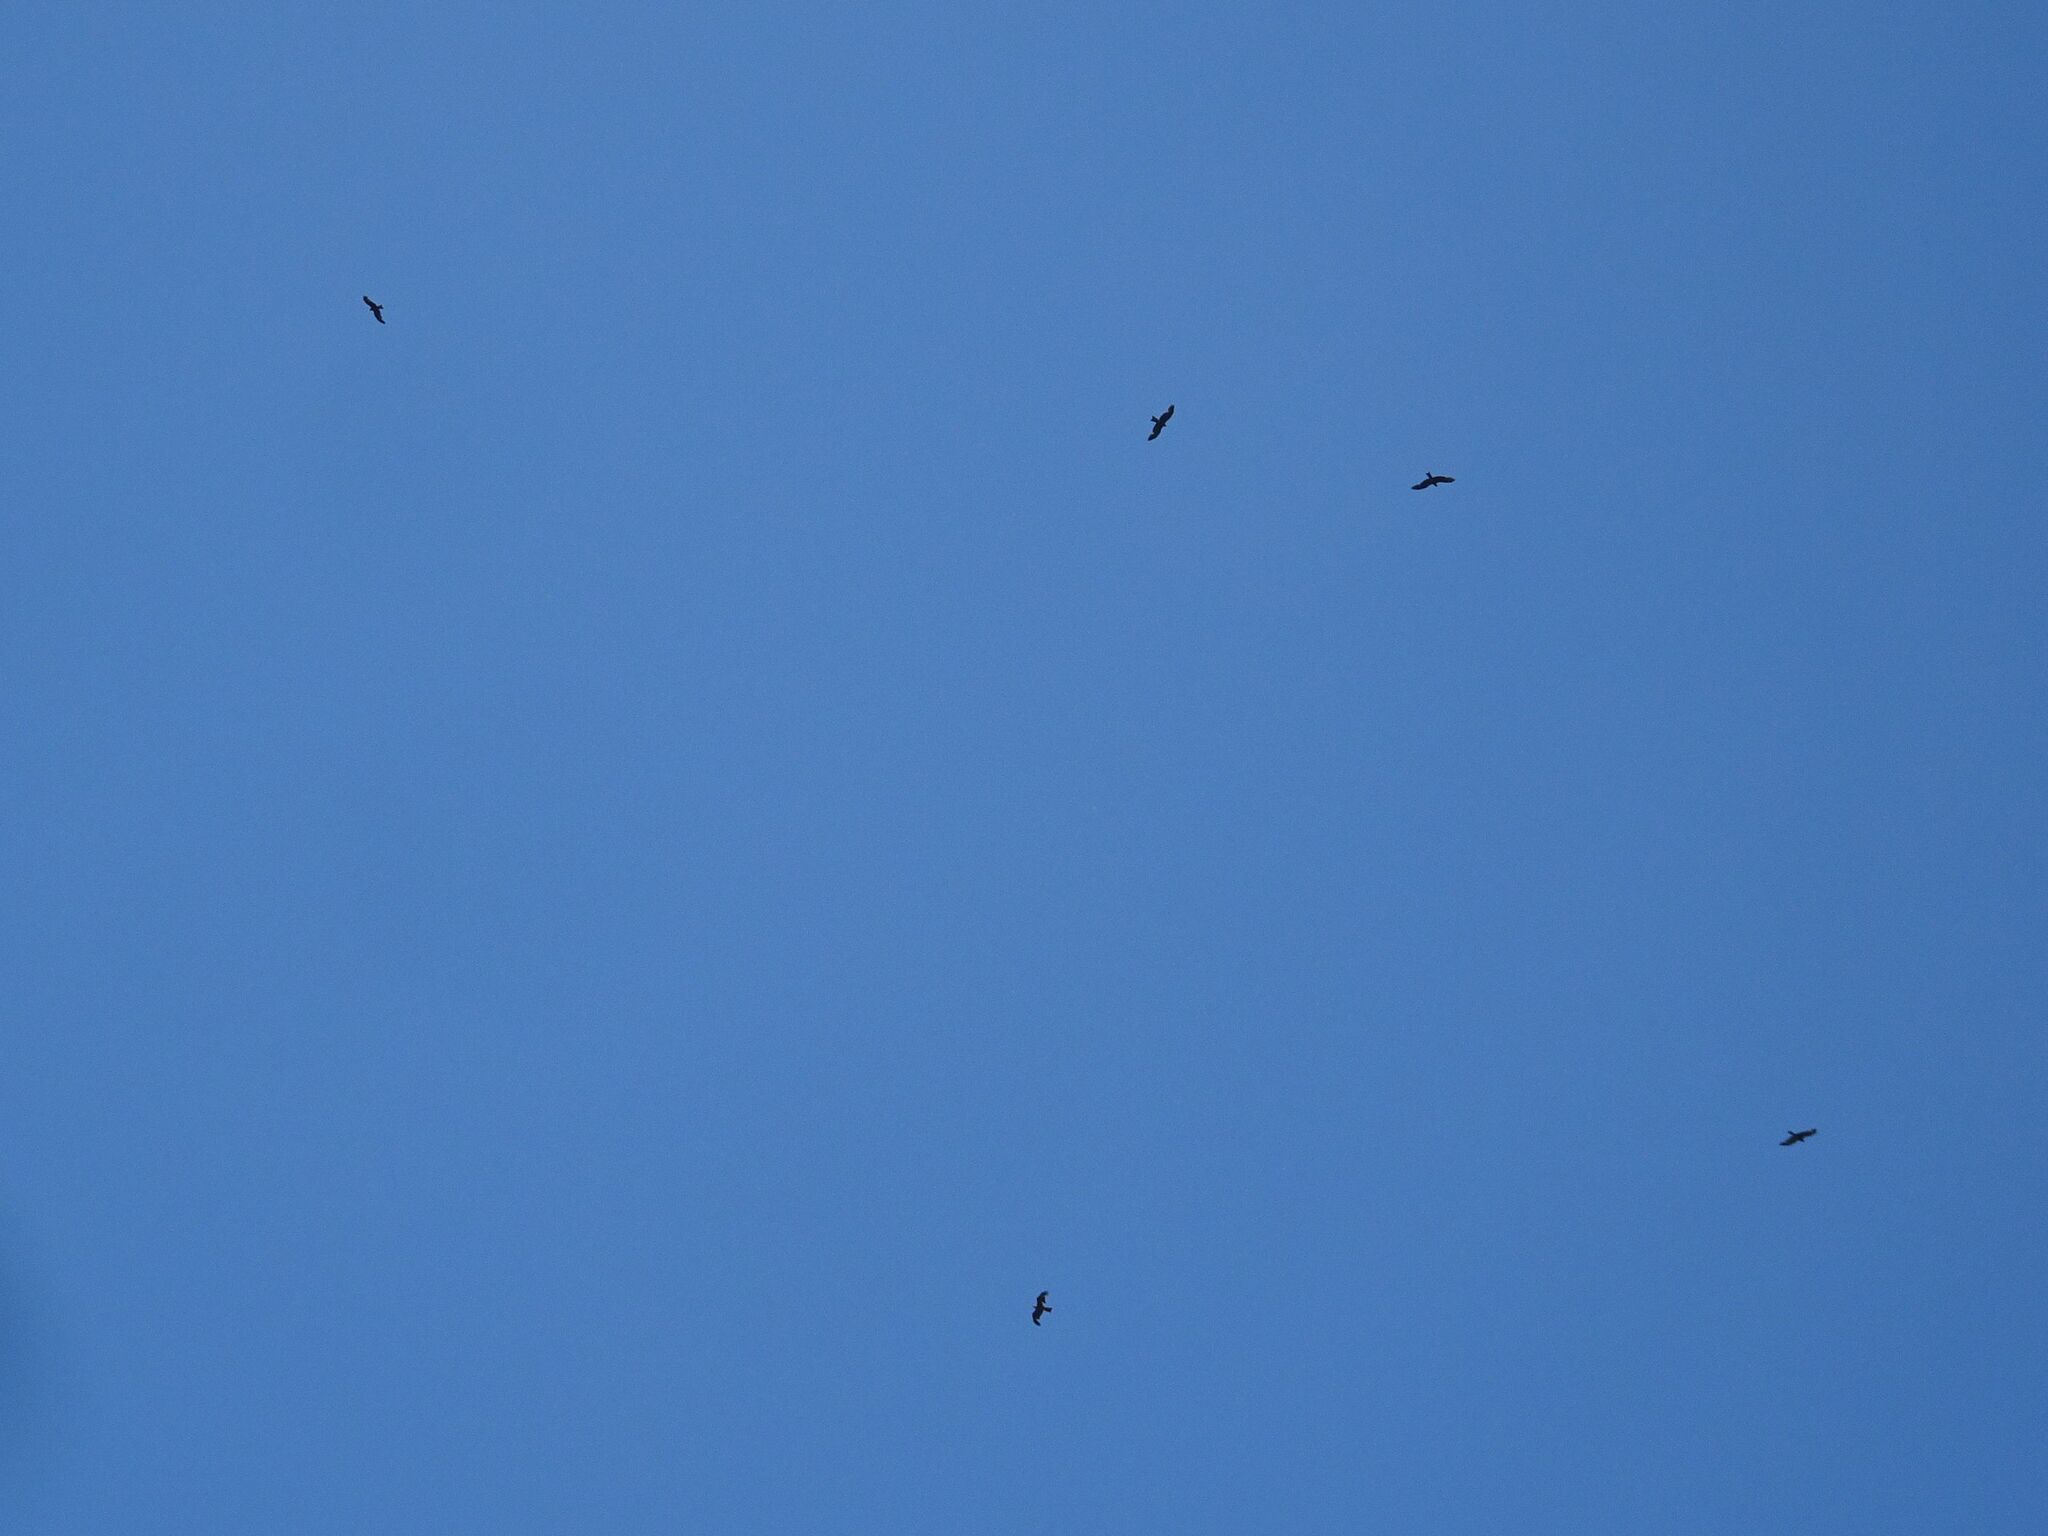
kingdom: Animalia
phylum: Chordata
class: Aves
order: Accipitriformes
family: Accipitridae
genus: Milvus
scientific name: Milvus migrans
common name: Black kite
